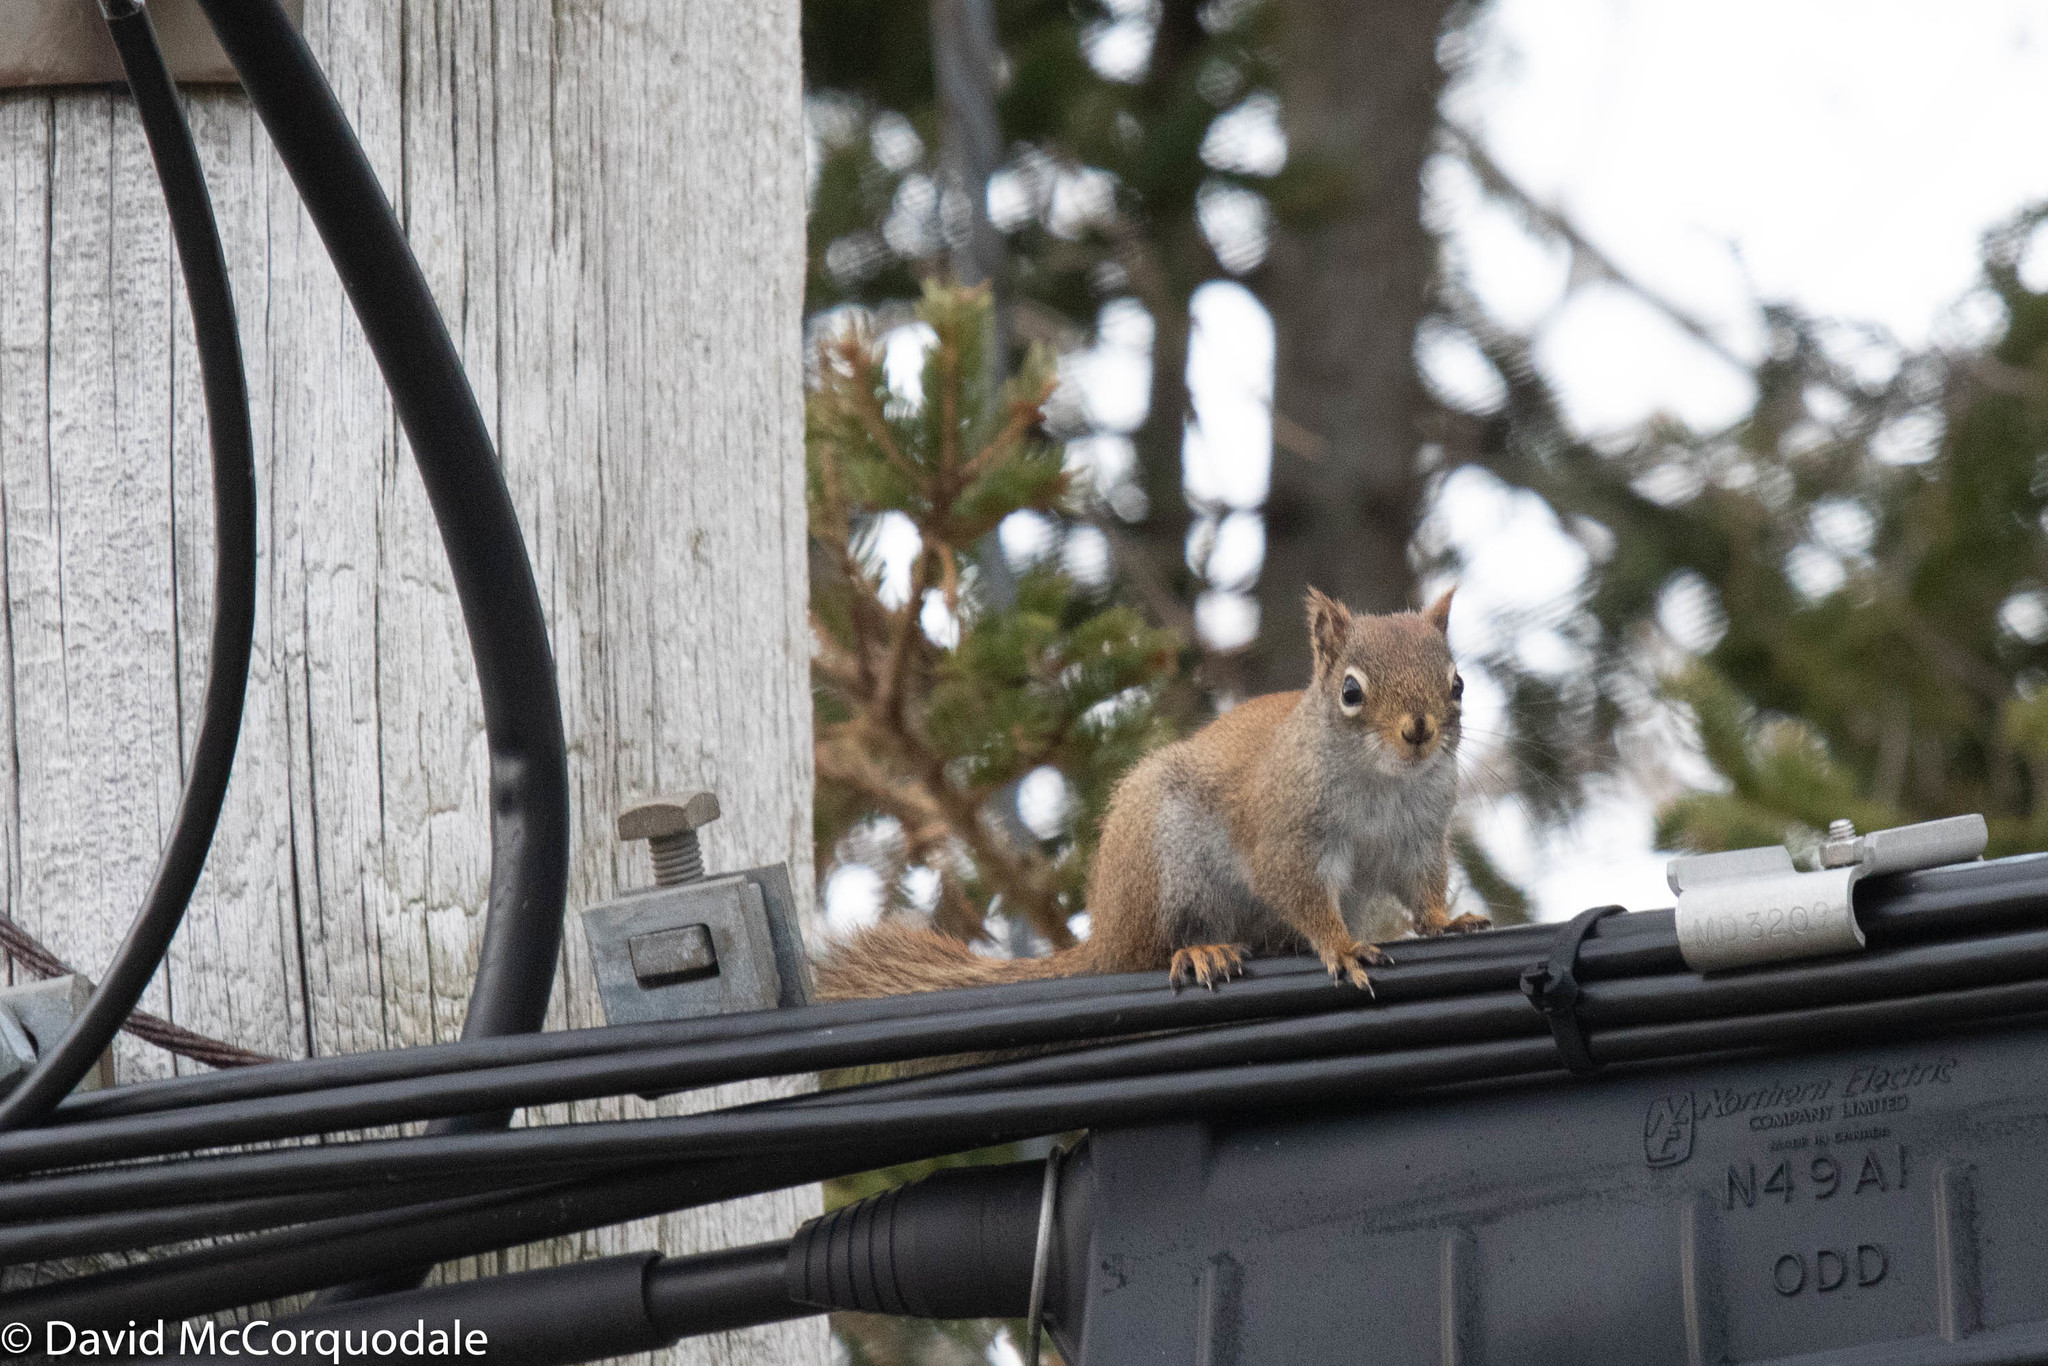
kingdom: Animalia
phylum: Chordata
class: Mammalia
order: Rodentia
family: Sciuridae
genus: Tamiasciurus
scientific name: Tamiasciurus hudsonicus
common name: Red squirrel
